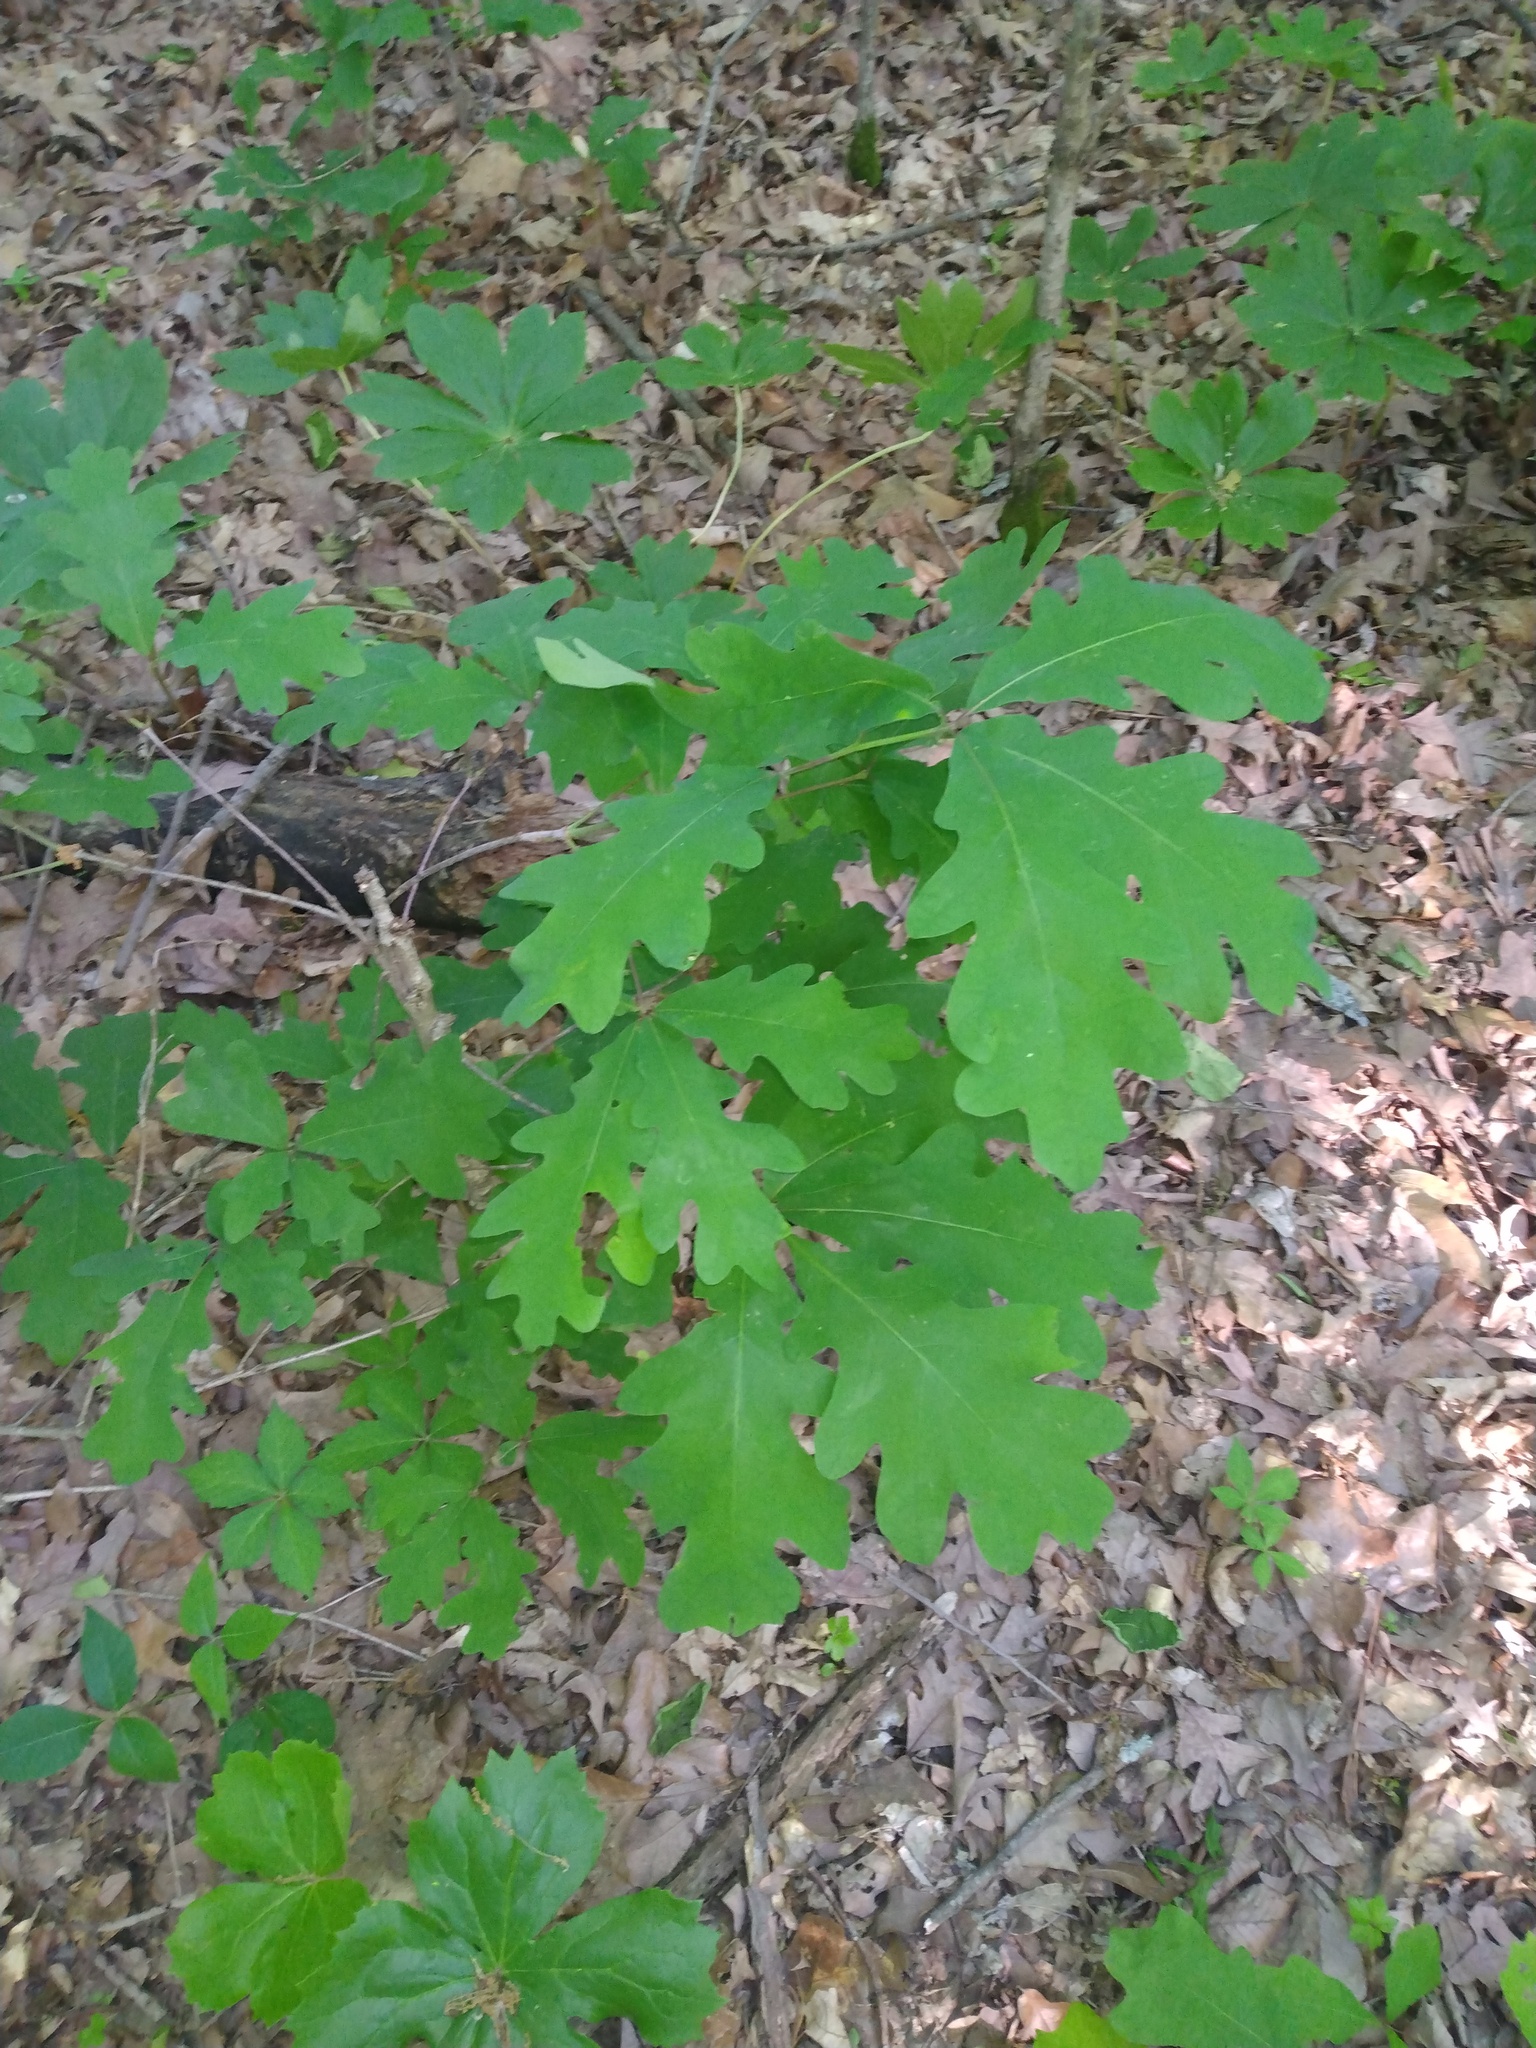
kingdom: Plantae
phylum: Tracheophyta
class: Magnoliopsida
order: Fagales
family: Fagaceae
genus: Quercus
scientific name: Quercus alba
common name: White oak
